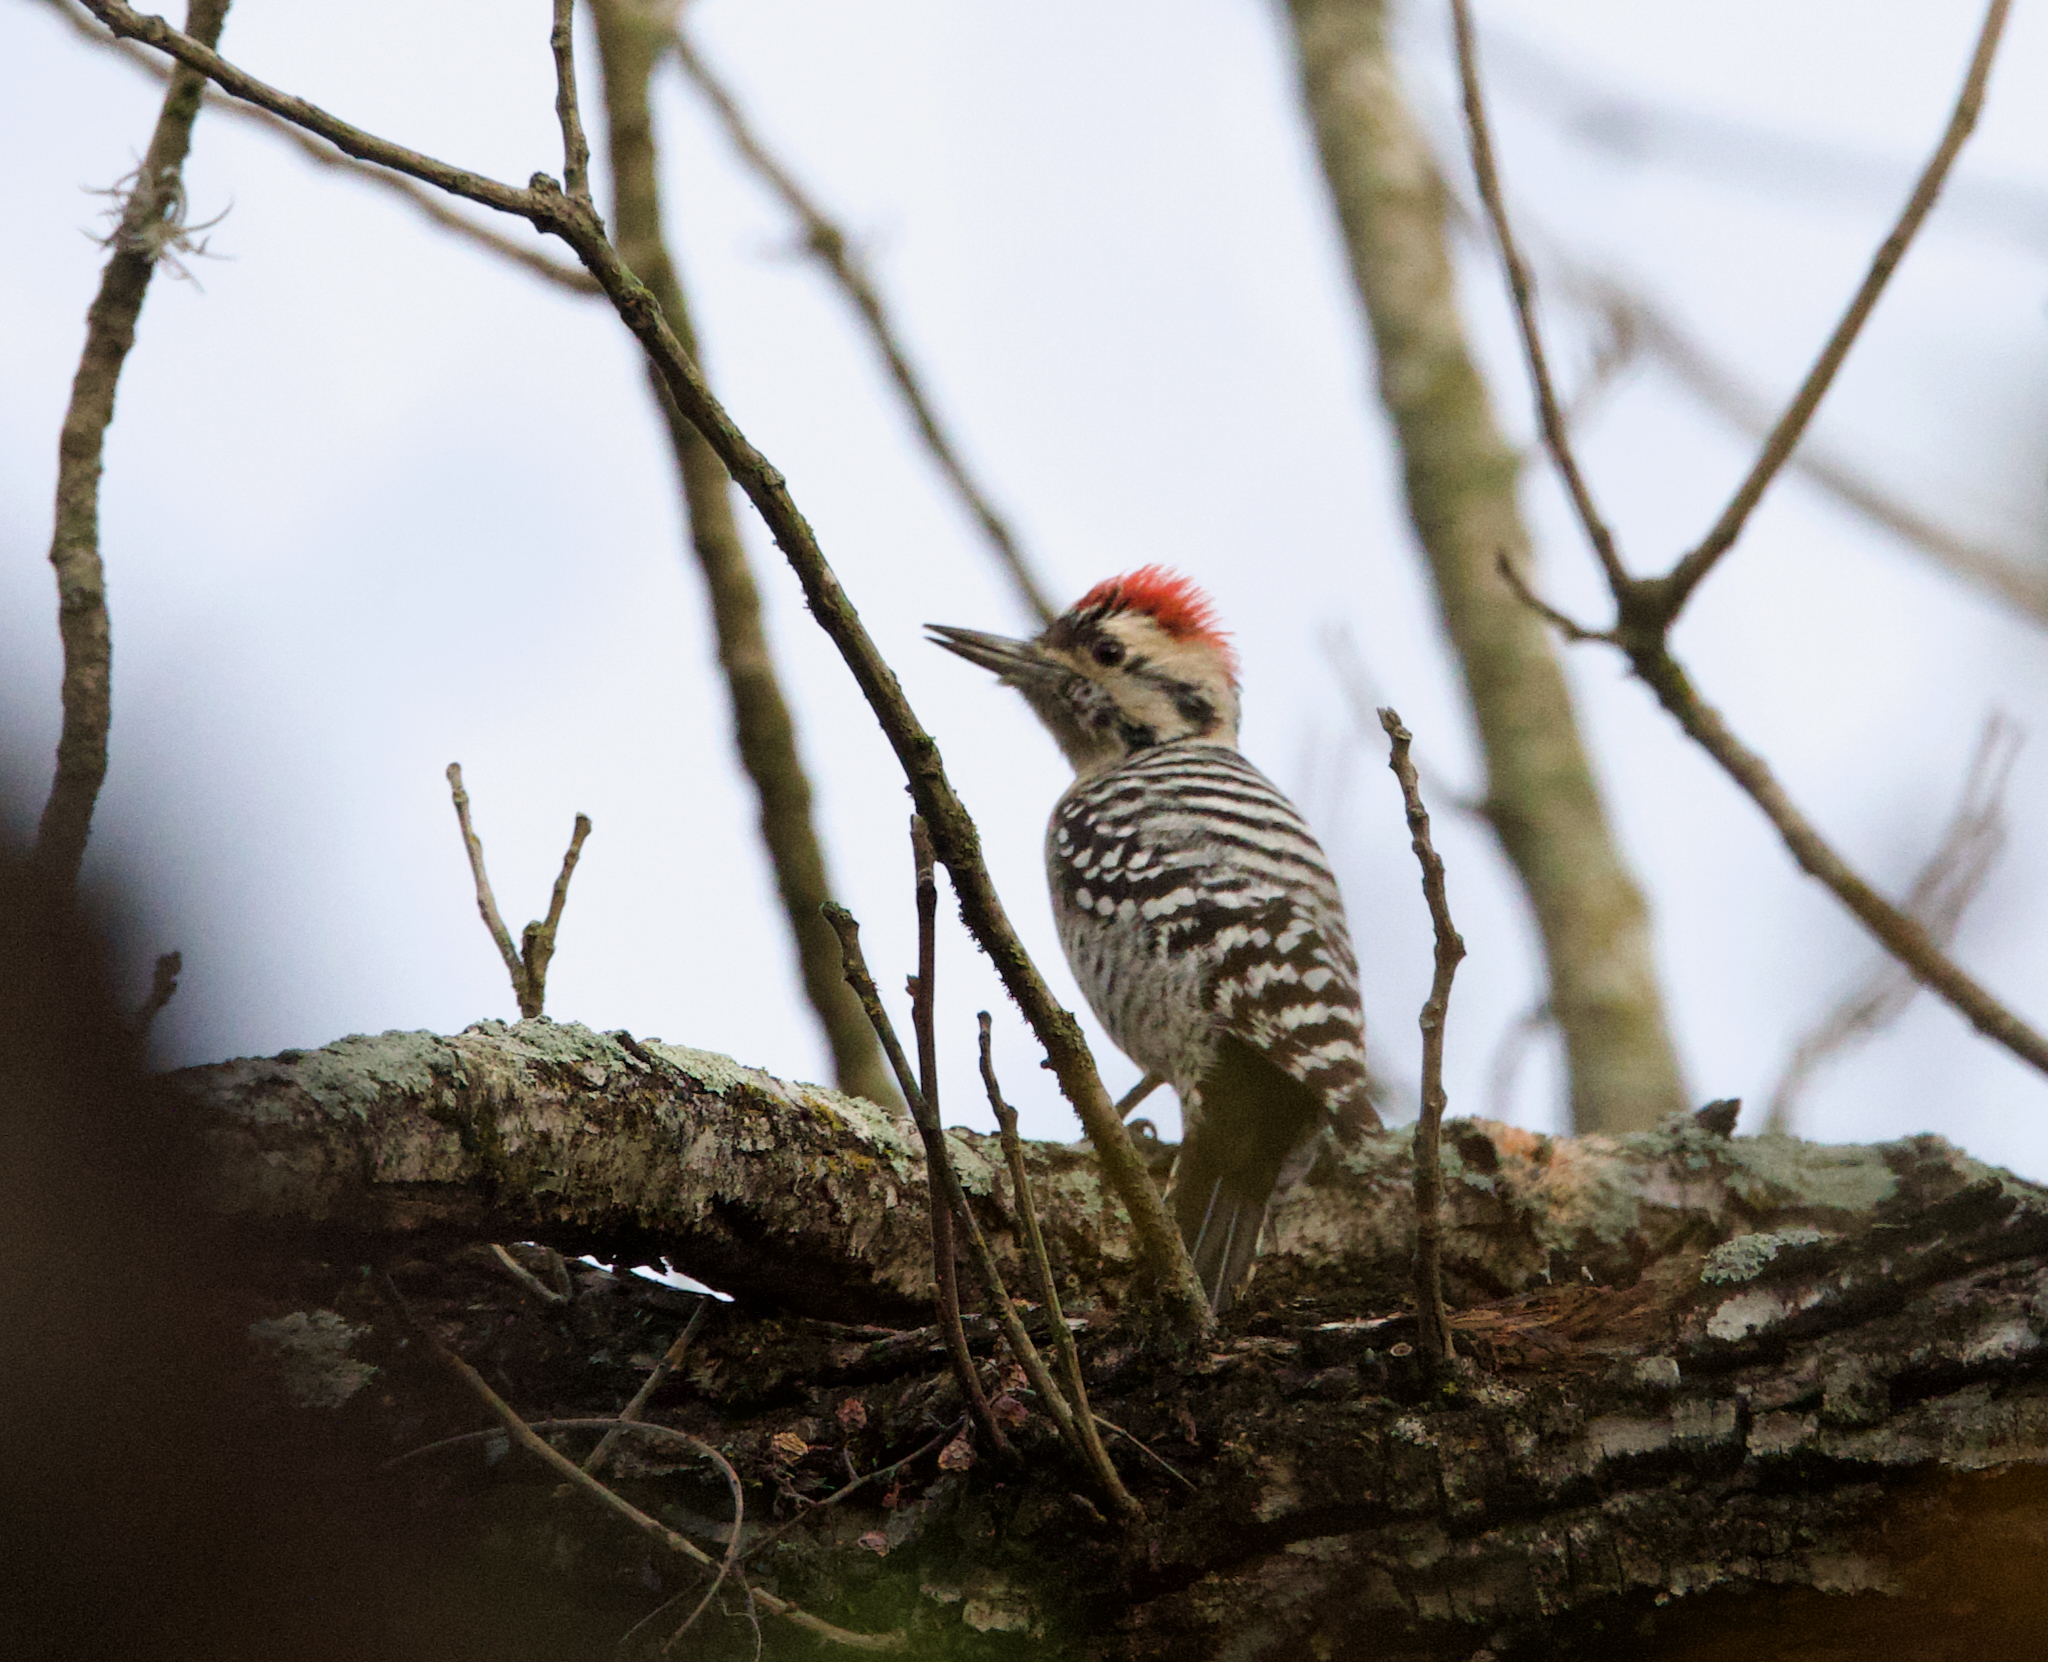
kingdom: Animalia
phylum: Chordata
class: Aves
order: Piciformes
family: Picidae
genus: Dryobates
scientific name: Dryobates scalaris
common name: Ladder-backed woodpecker
